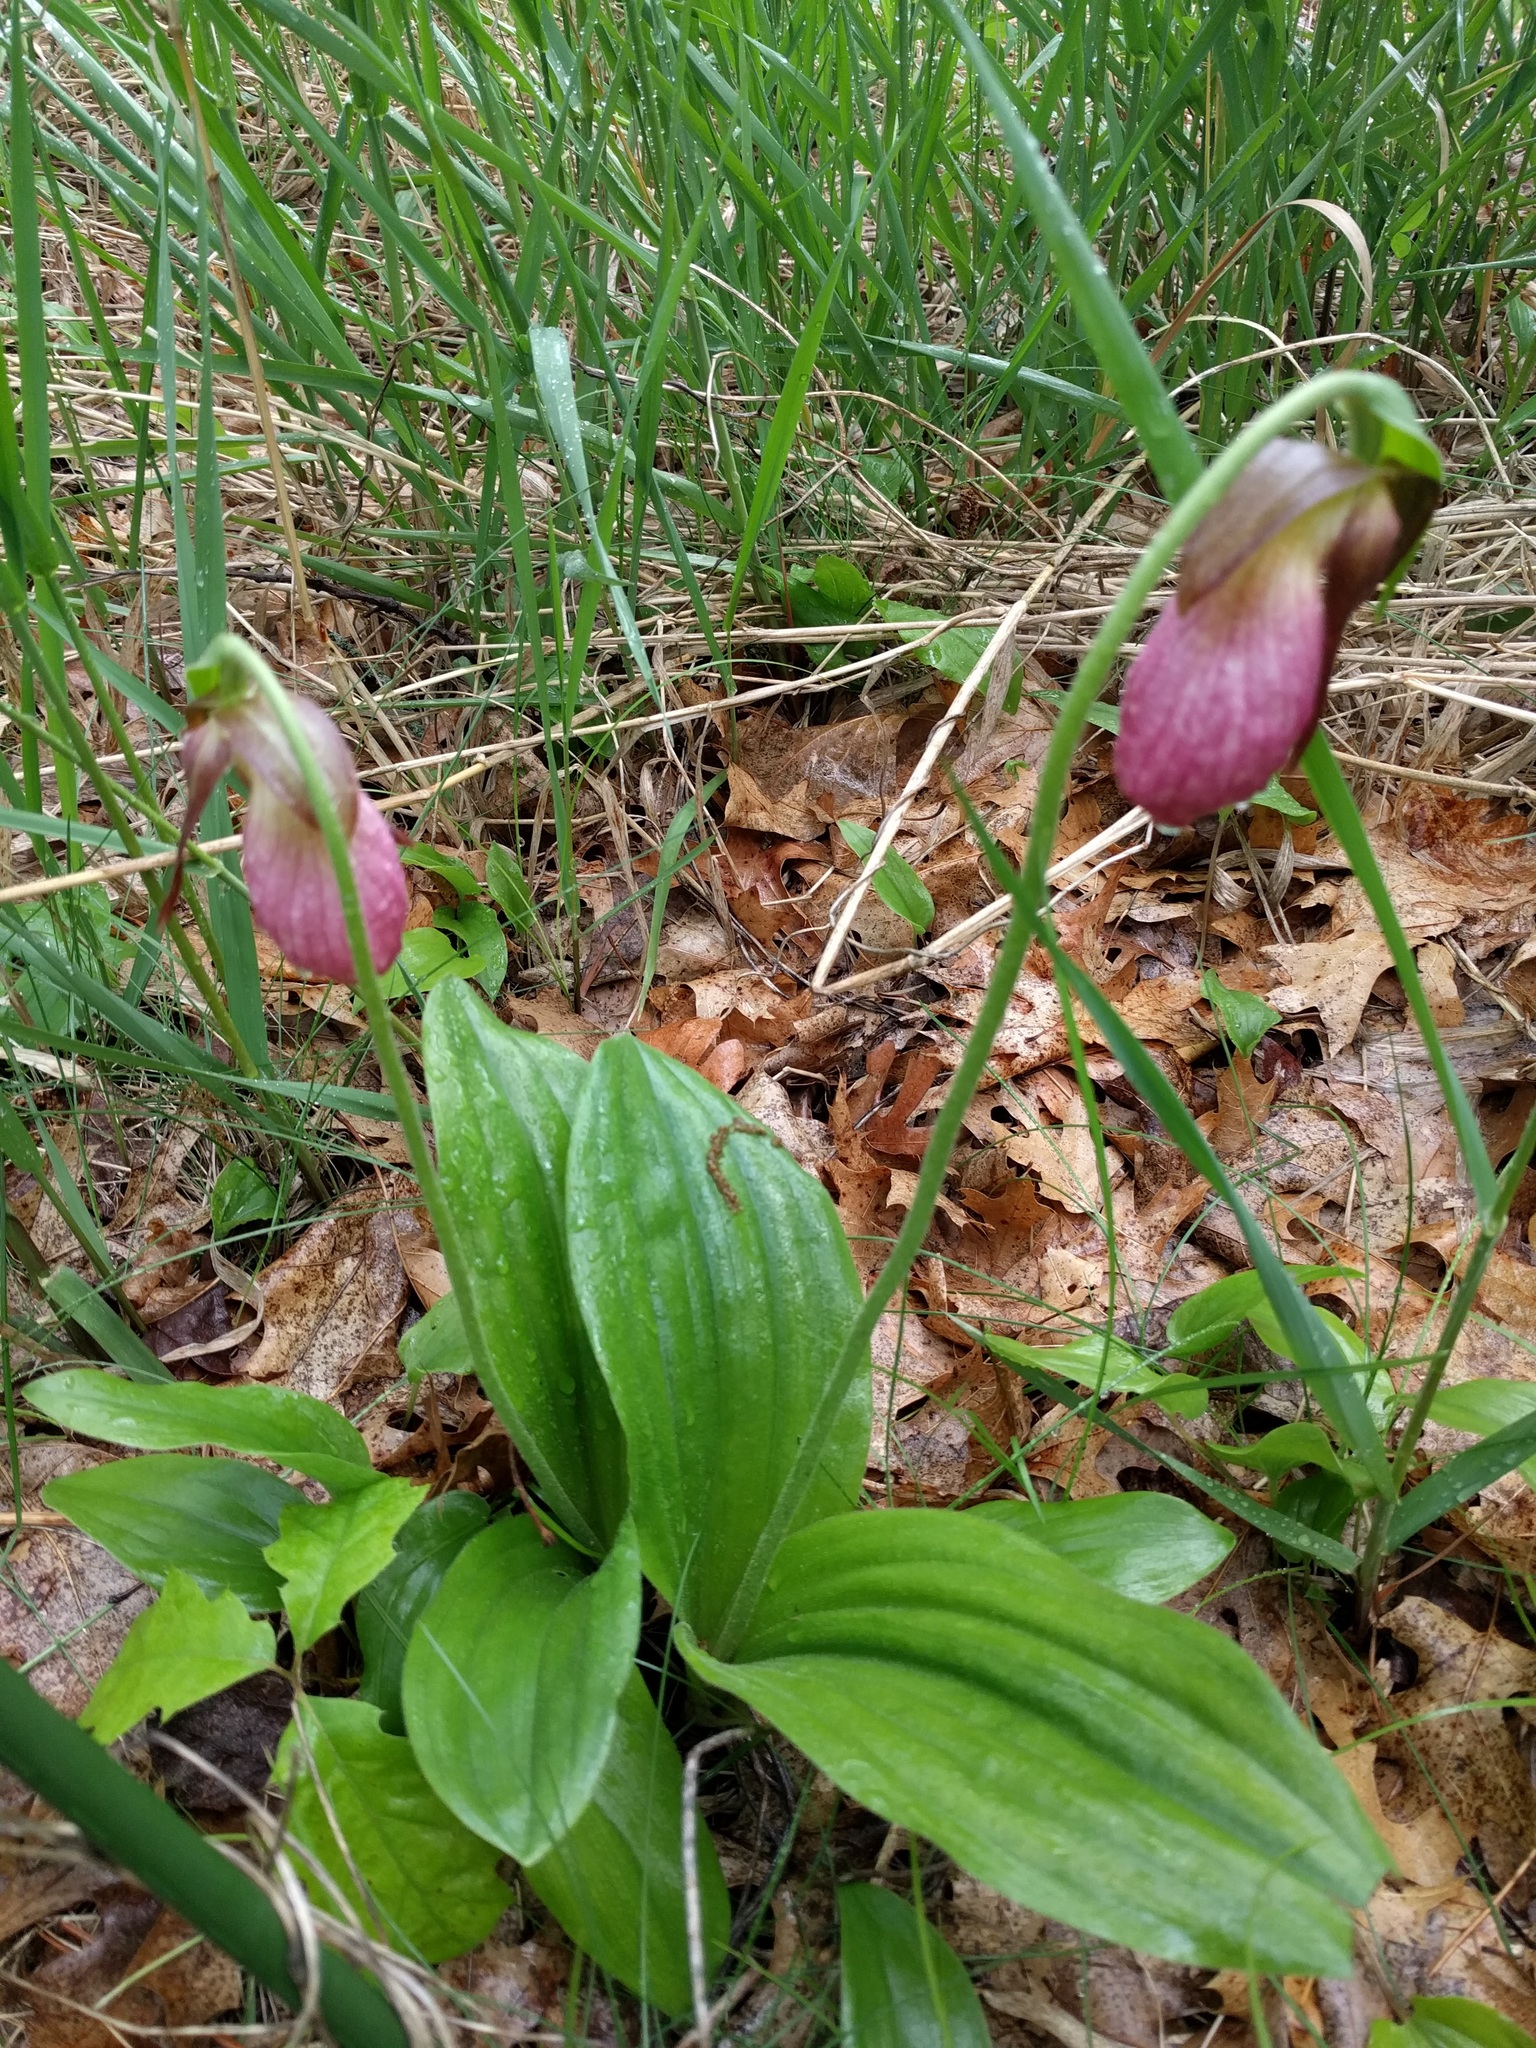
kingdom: Plantae
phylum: Tracheophyta
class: Liliopsida
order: Asparagales
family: Orchidaceae
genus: Cypripedium
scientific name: Cypripedium acaule
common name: Pink lady's-slipper
